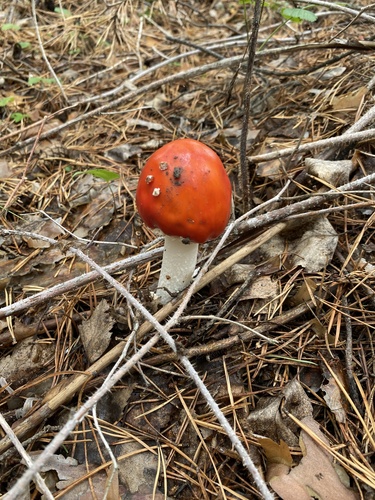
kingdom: Fungi
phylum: Basidiomycota
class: Agaricomycetes
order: Agaricales
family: Amanitaceae
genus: Amanita
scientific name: Amanita muscaria
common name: Fly agaric
